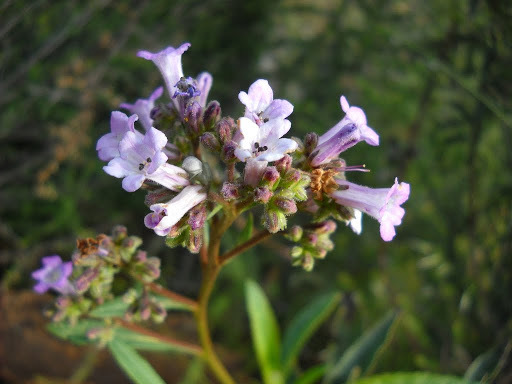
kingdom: Plantae
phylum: Tracheophyta
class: Magnoliopsida
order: Boraginales
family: Namaceae
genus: Eriodictyon
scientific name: Eriodictyon californicum
